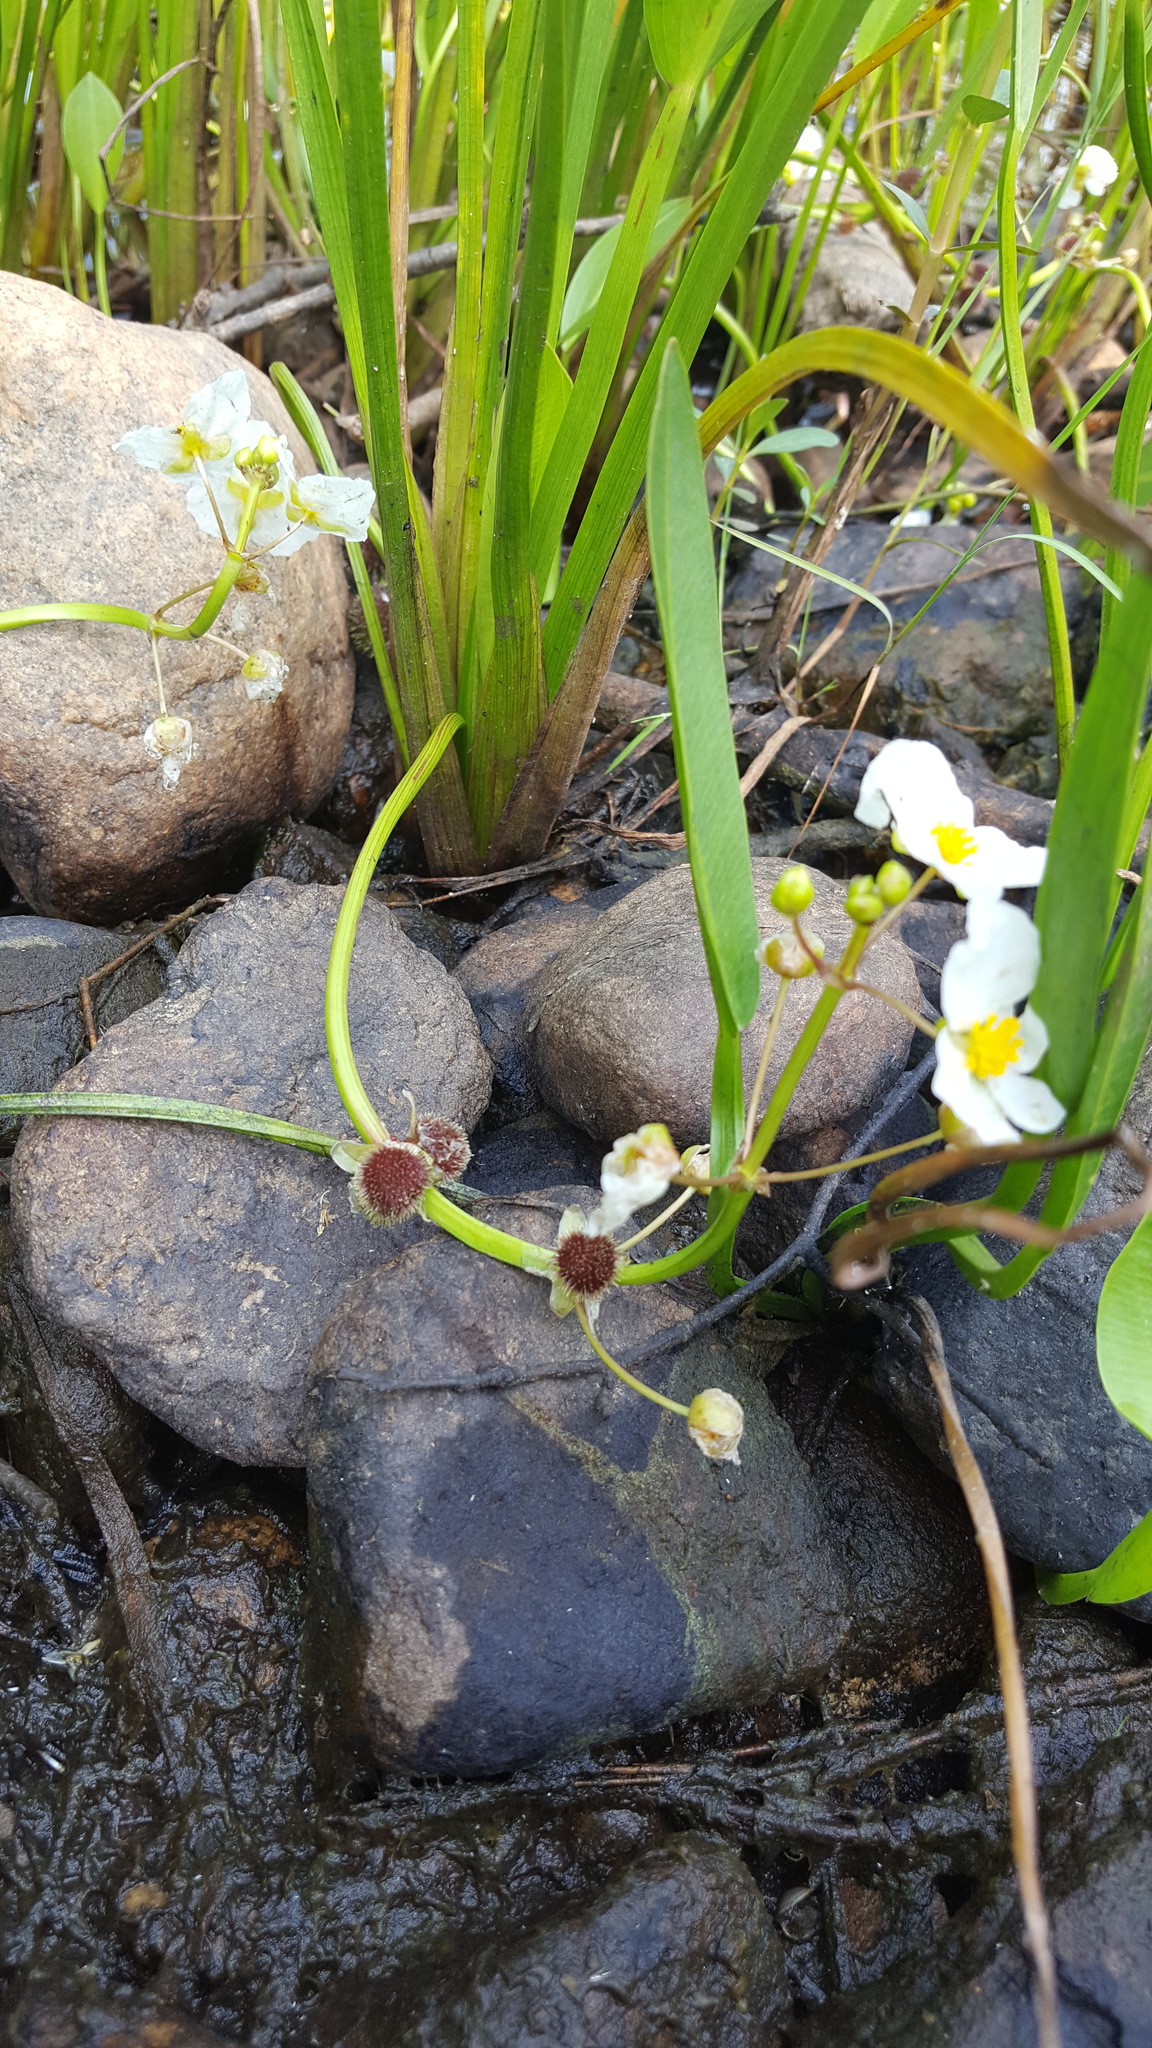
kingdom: Plantae
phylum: Tracheophyta
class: Liliopsida
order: Alismatales
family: Alismataceae
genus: Sagittaria
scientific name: Sagittaria rigida
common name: Canadian arrowhead
